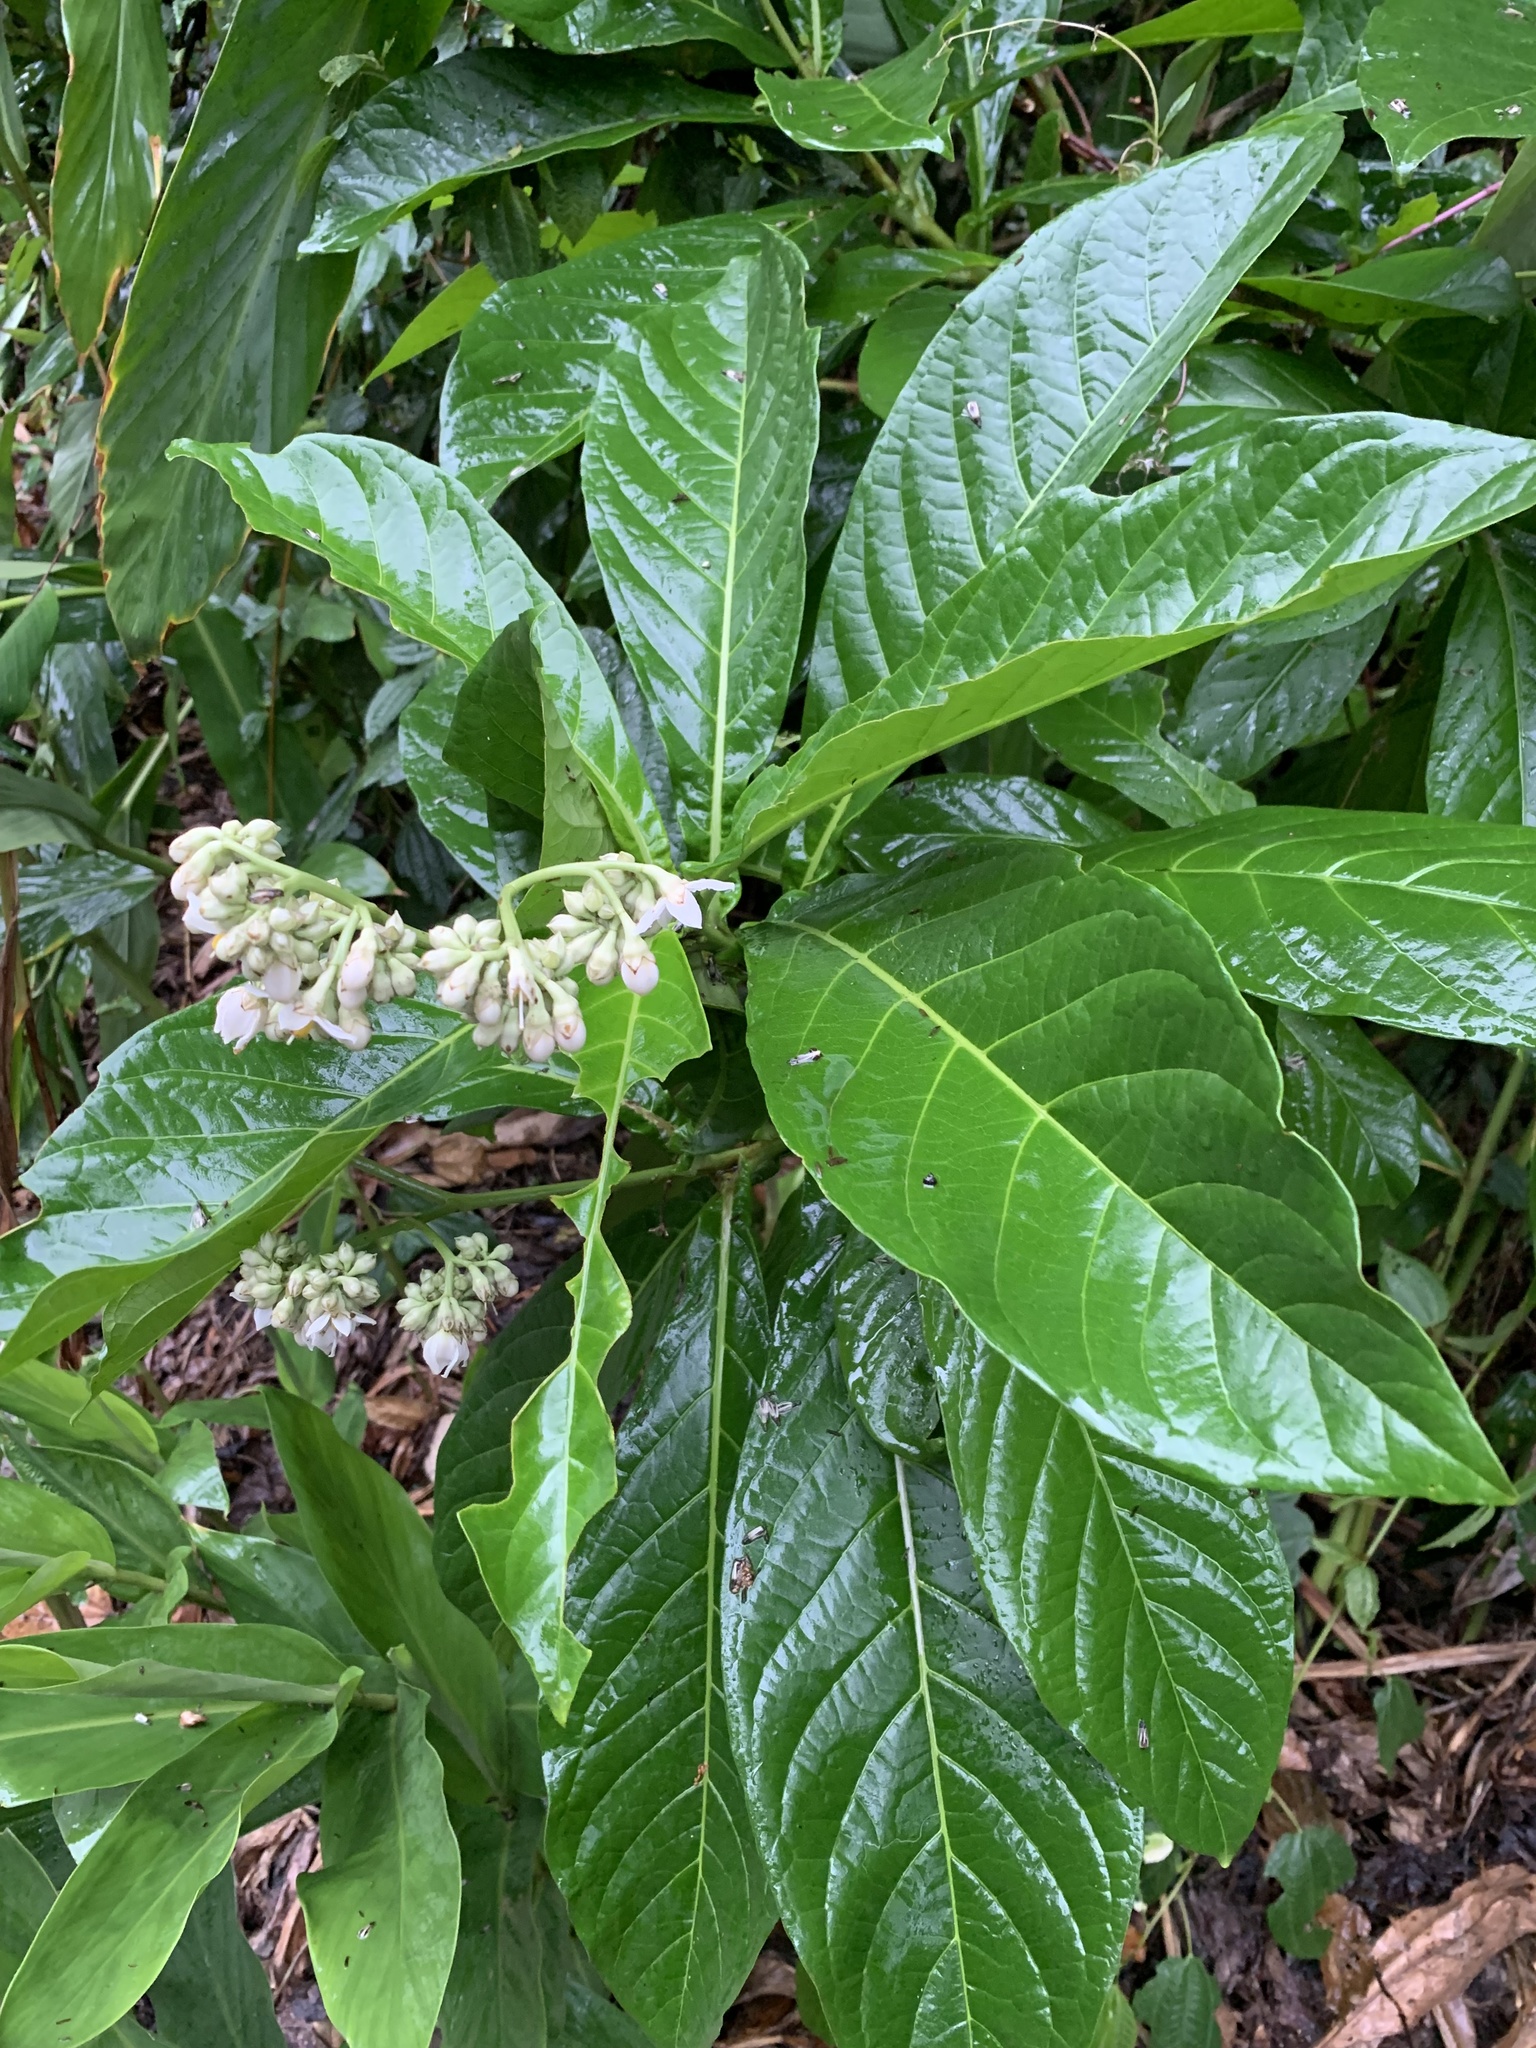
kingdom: Plantae
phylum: Tracheophyta
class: Magnoliopsida
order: Solanales
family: Solanaceae
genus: Solanum
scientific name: Solanum sessile
